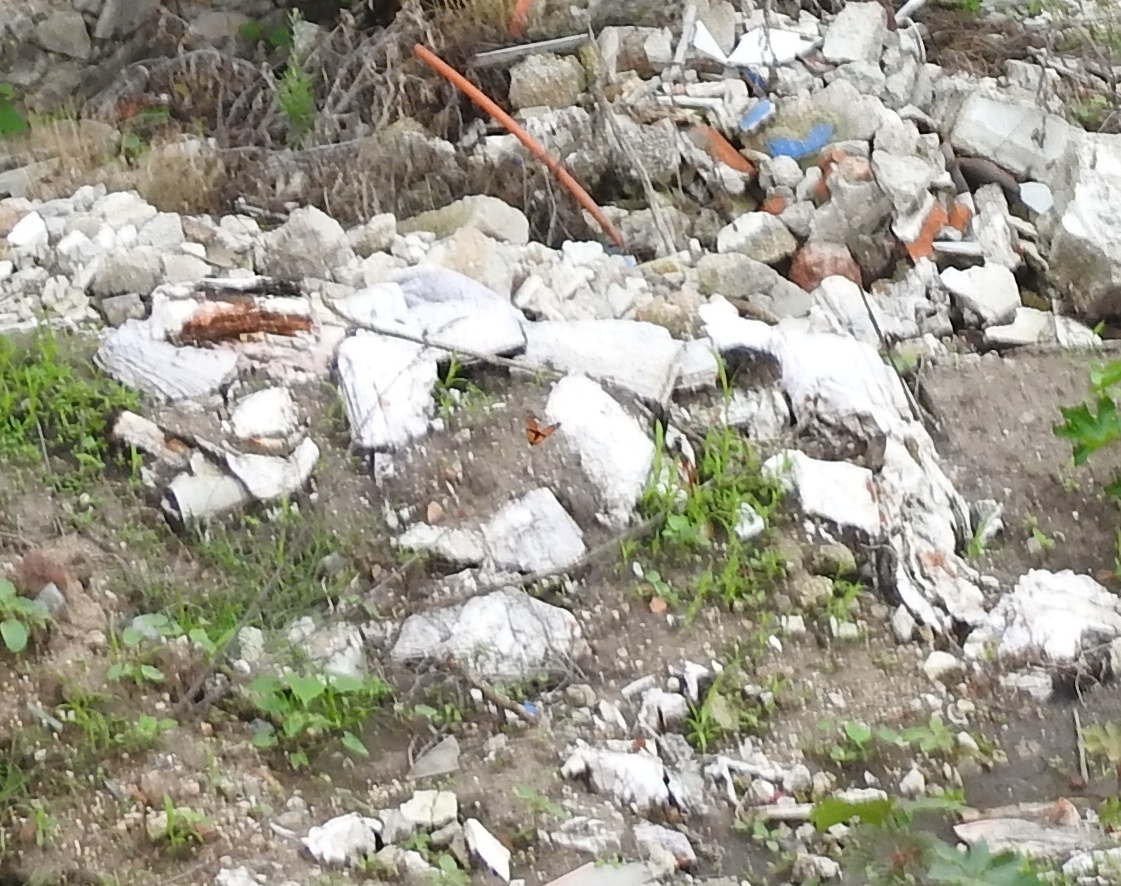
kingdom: Animalia
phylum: Arthropoda
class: Insecta
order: Lepidoptera
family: Nymphalidae
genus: Danaus
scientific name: Danaus plexippus
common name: Monarch
